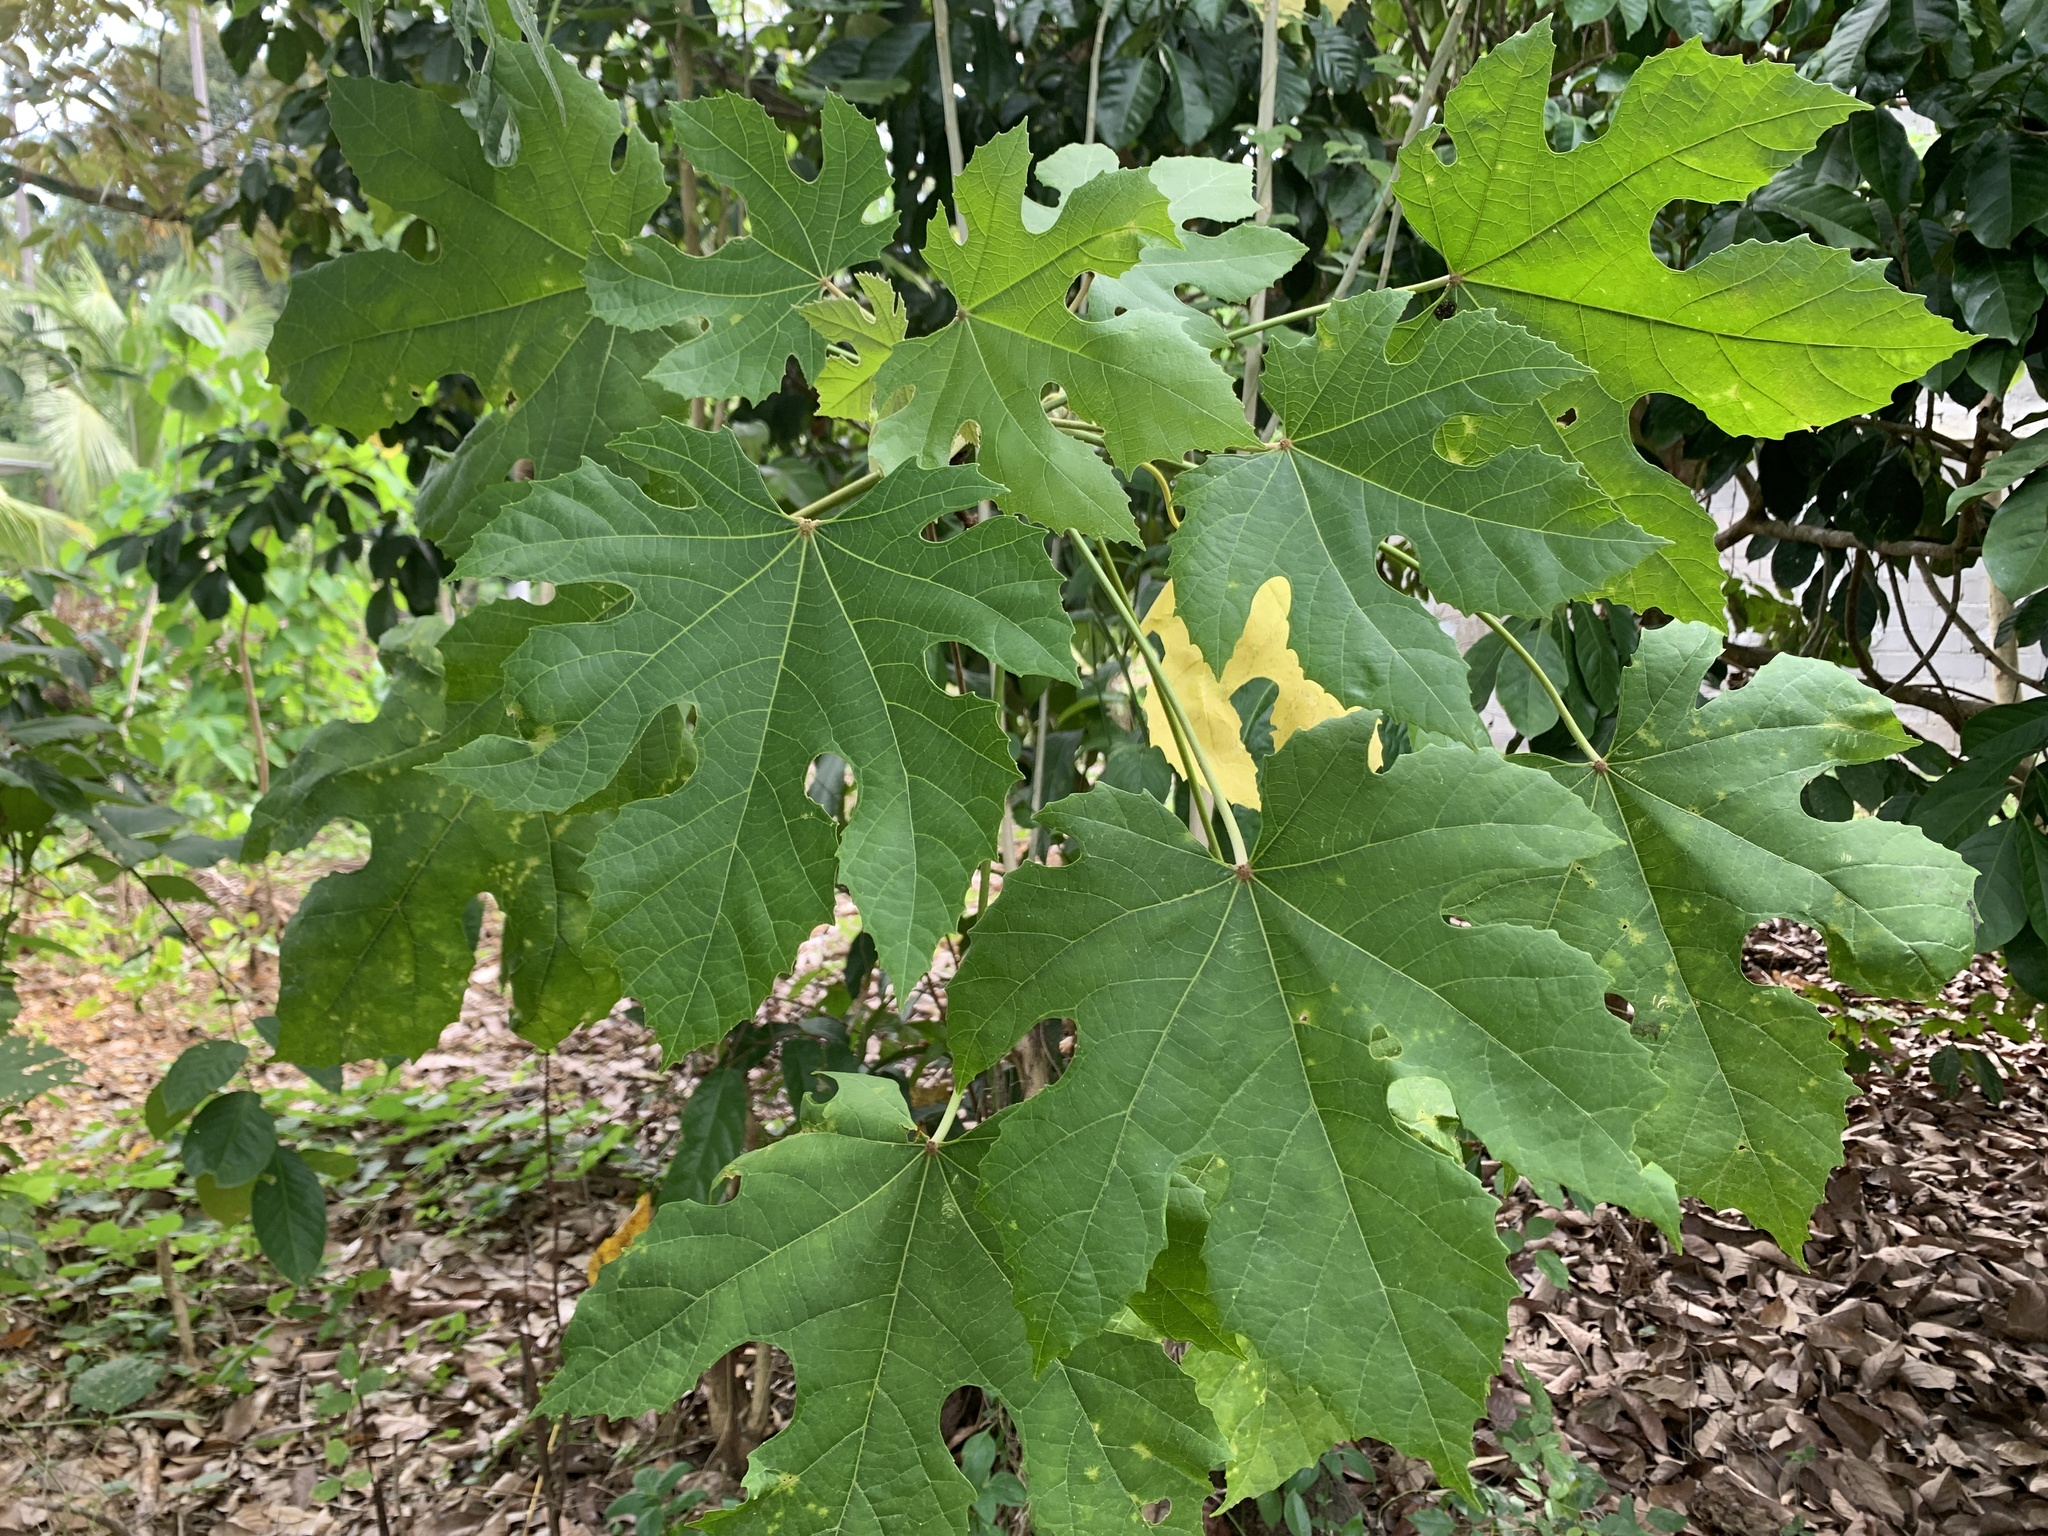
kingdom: Plantae
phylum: Tracheophyta
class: Magnoliopsida
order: Malpighiales
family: Euphorbiaceae
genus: Melanolepis
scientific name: Melanolepis multiglandulosa
